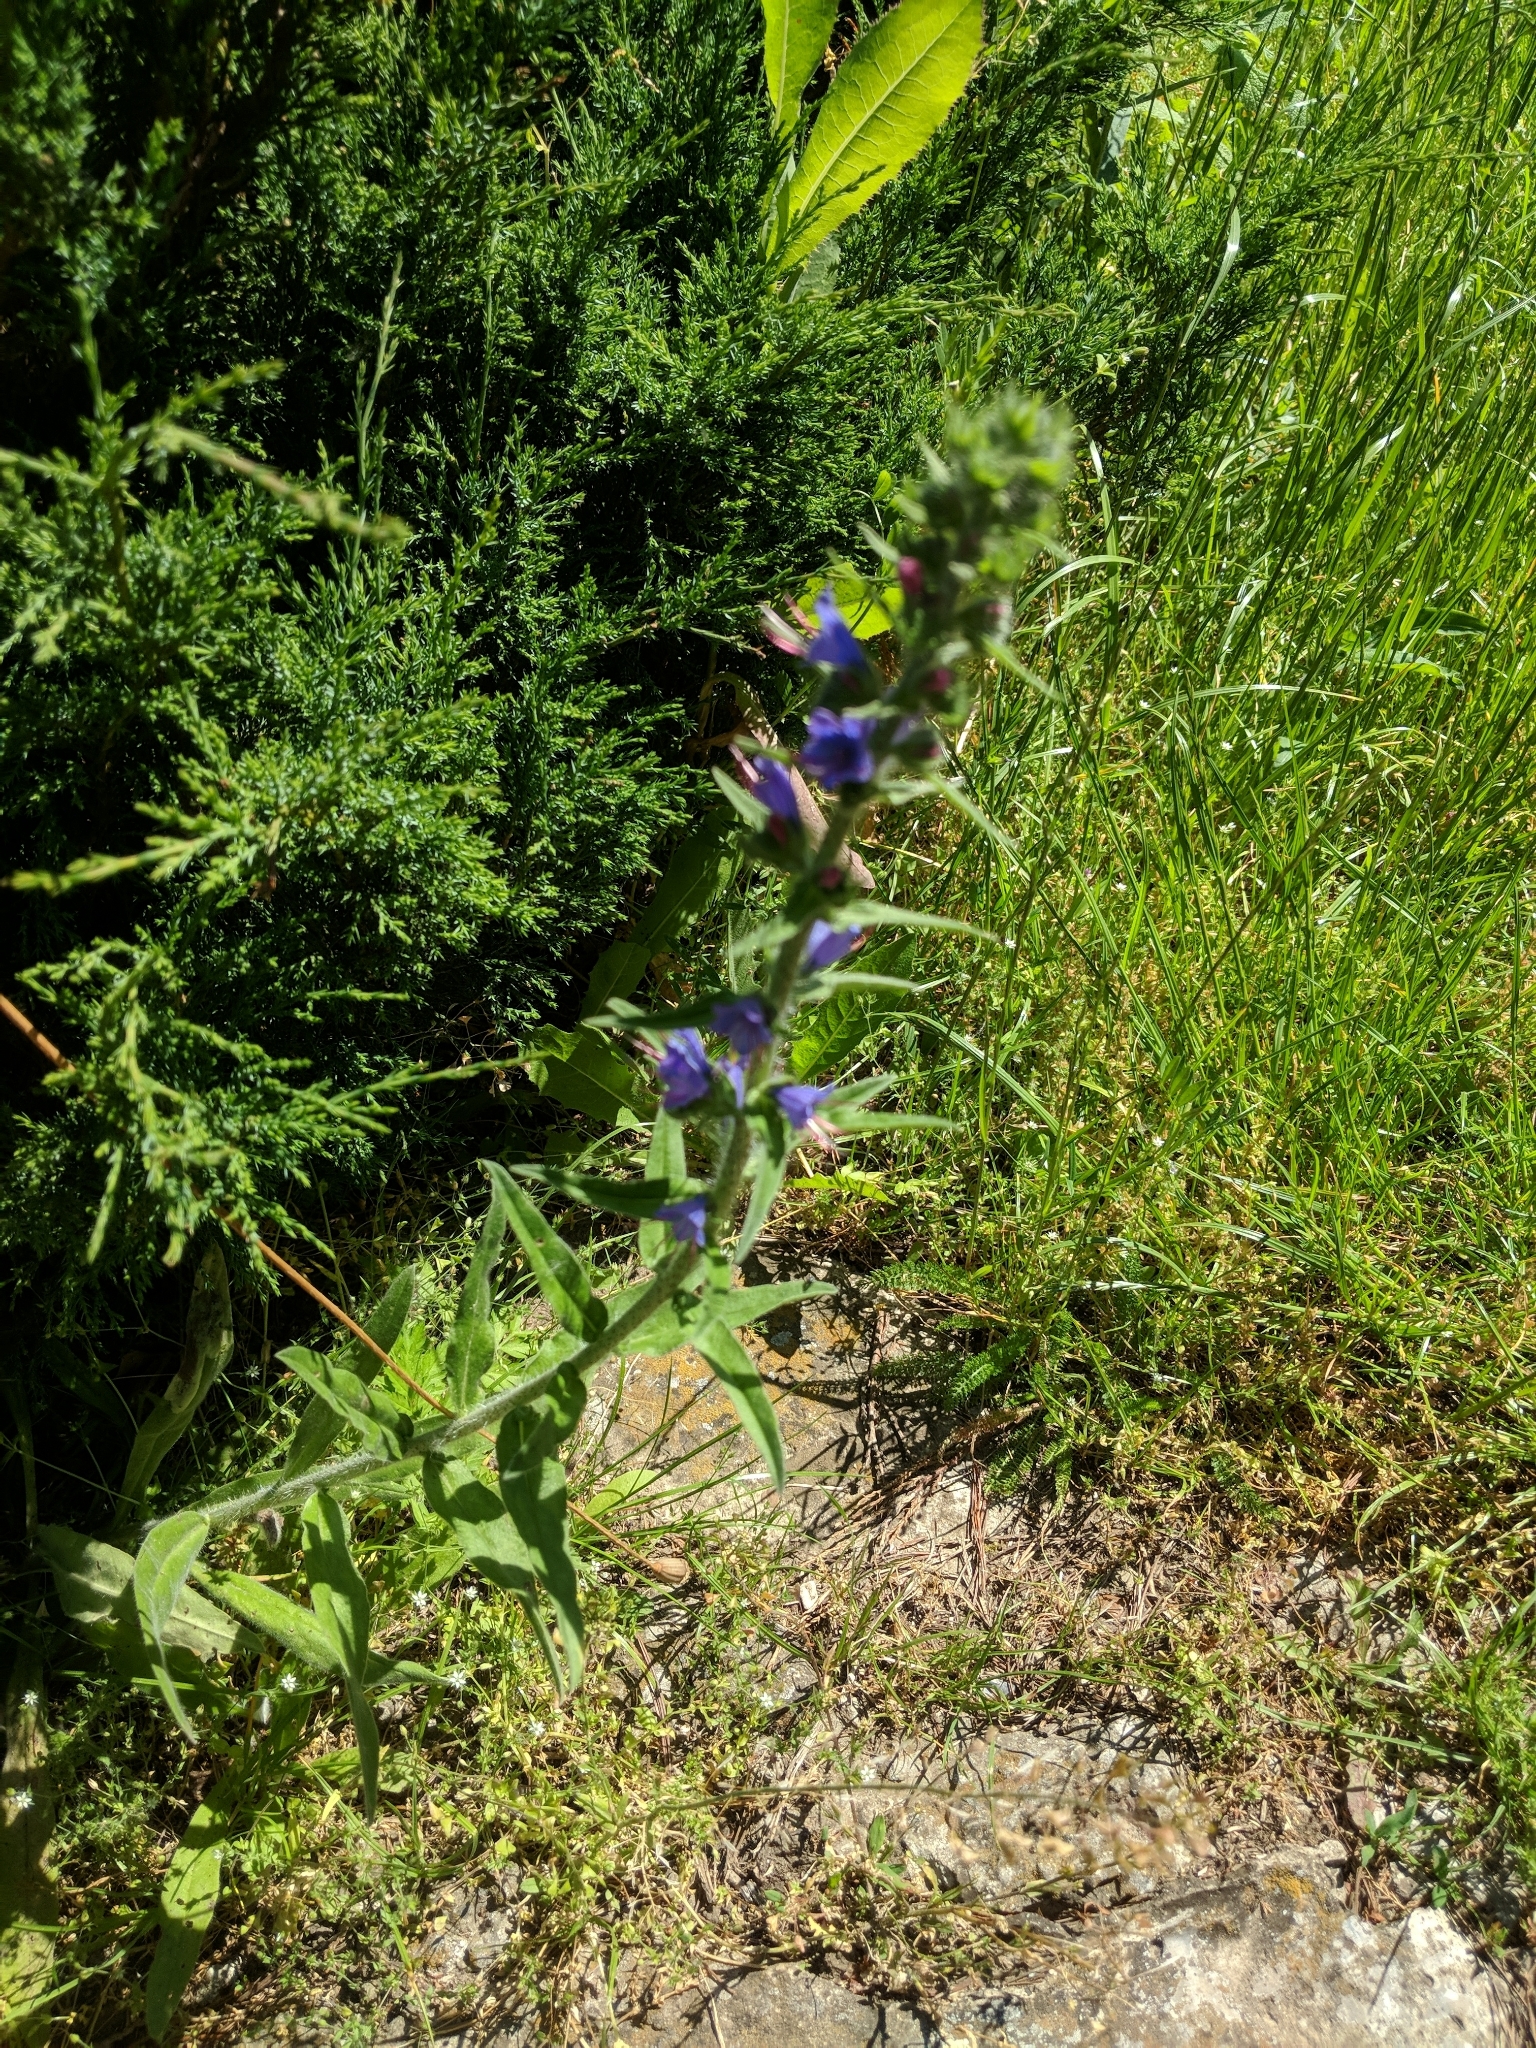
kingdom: Plantae
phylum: Tracheophyta
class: Magnoliopsida
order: Boraginales
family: Boraginaceae
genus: Echium
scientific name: Echium vulgare
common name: Common viper's bugloss
